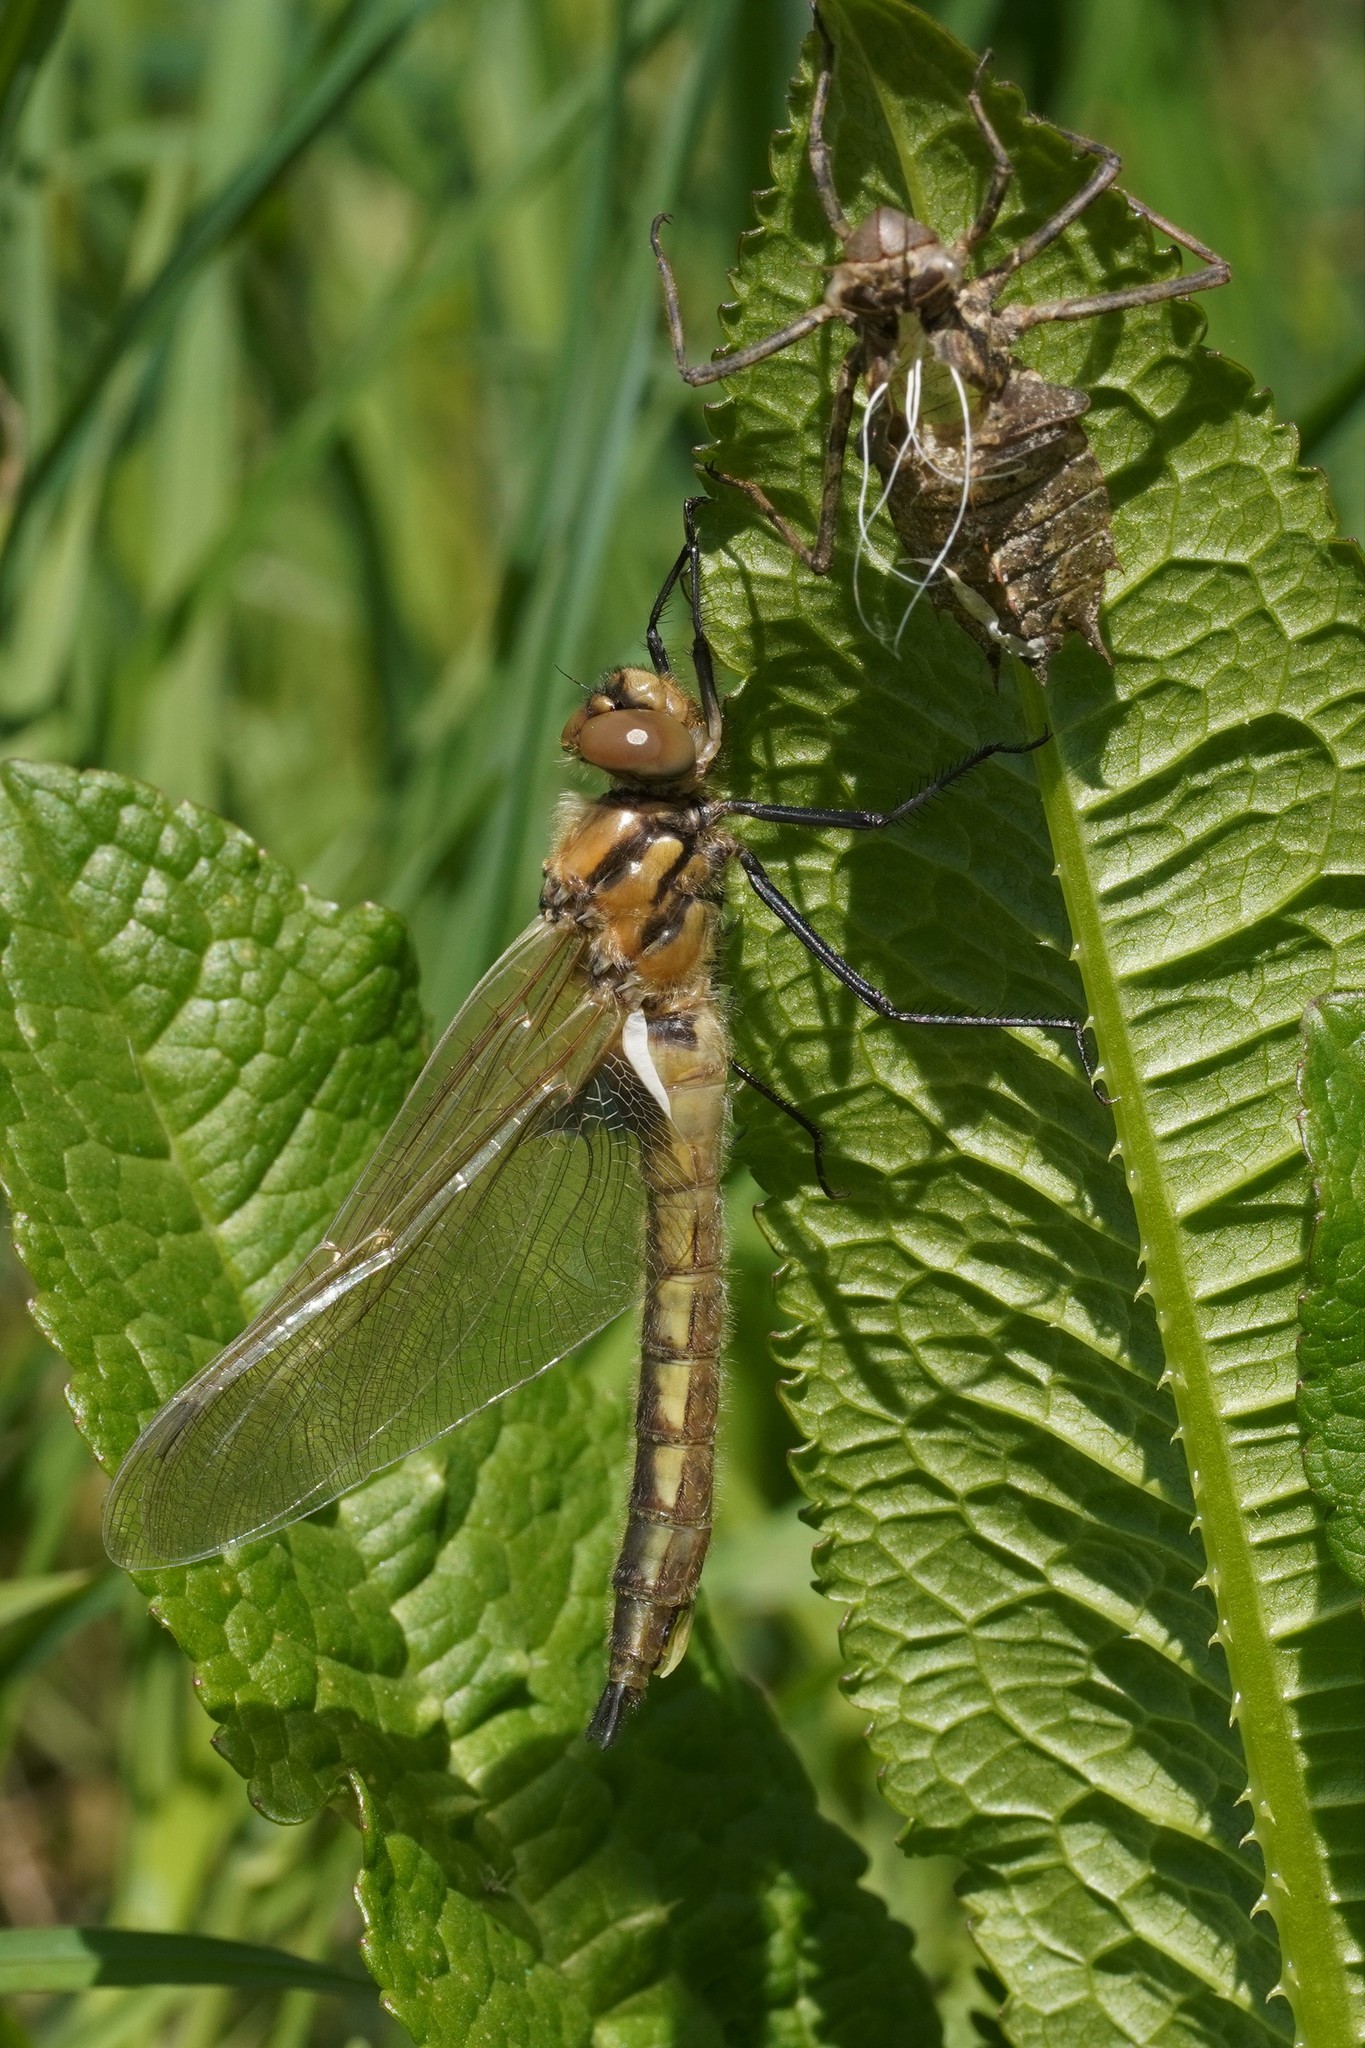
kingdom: Animalia
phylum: Arthropoda
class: Insecta
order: Odonata
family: Corduliidae
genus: Epitheca
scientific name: Epitheca bimaculata
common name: Eurasian baskettail
